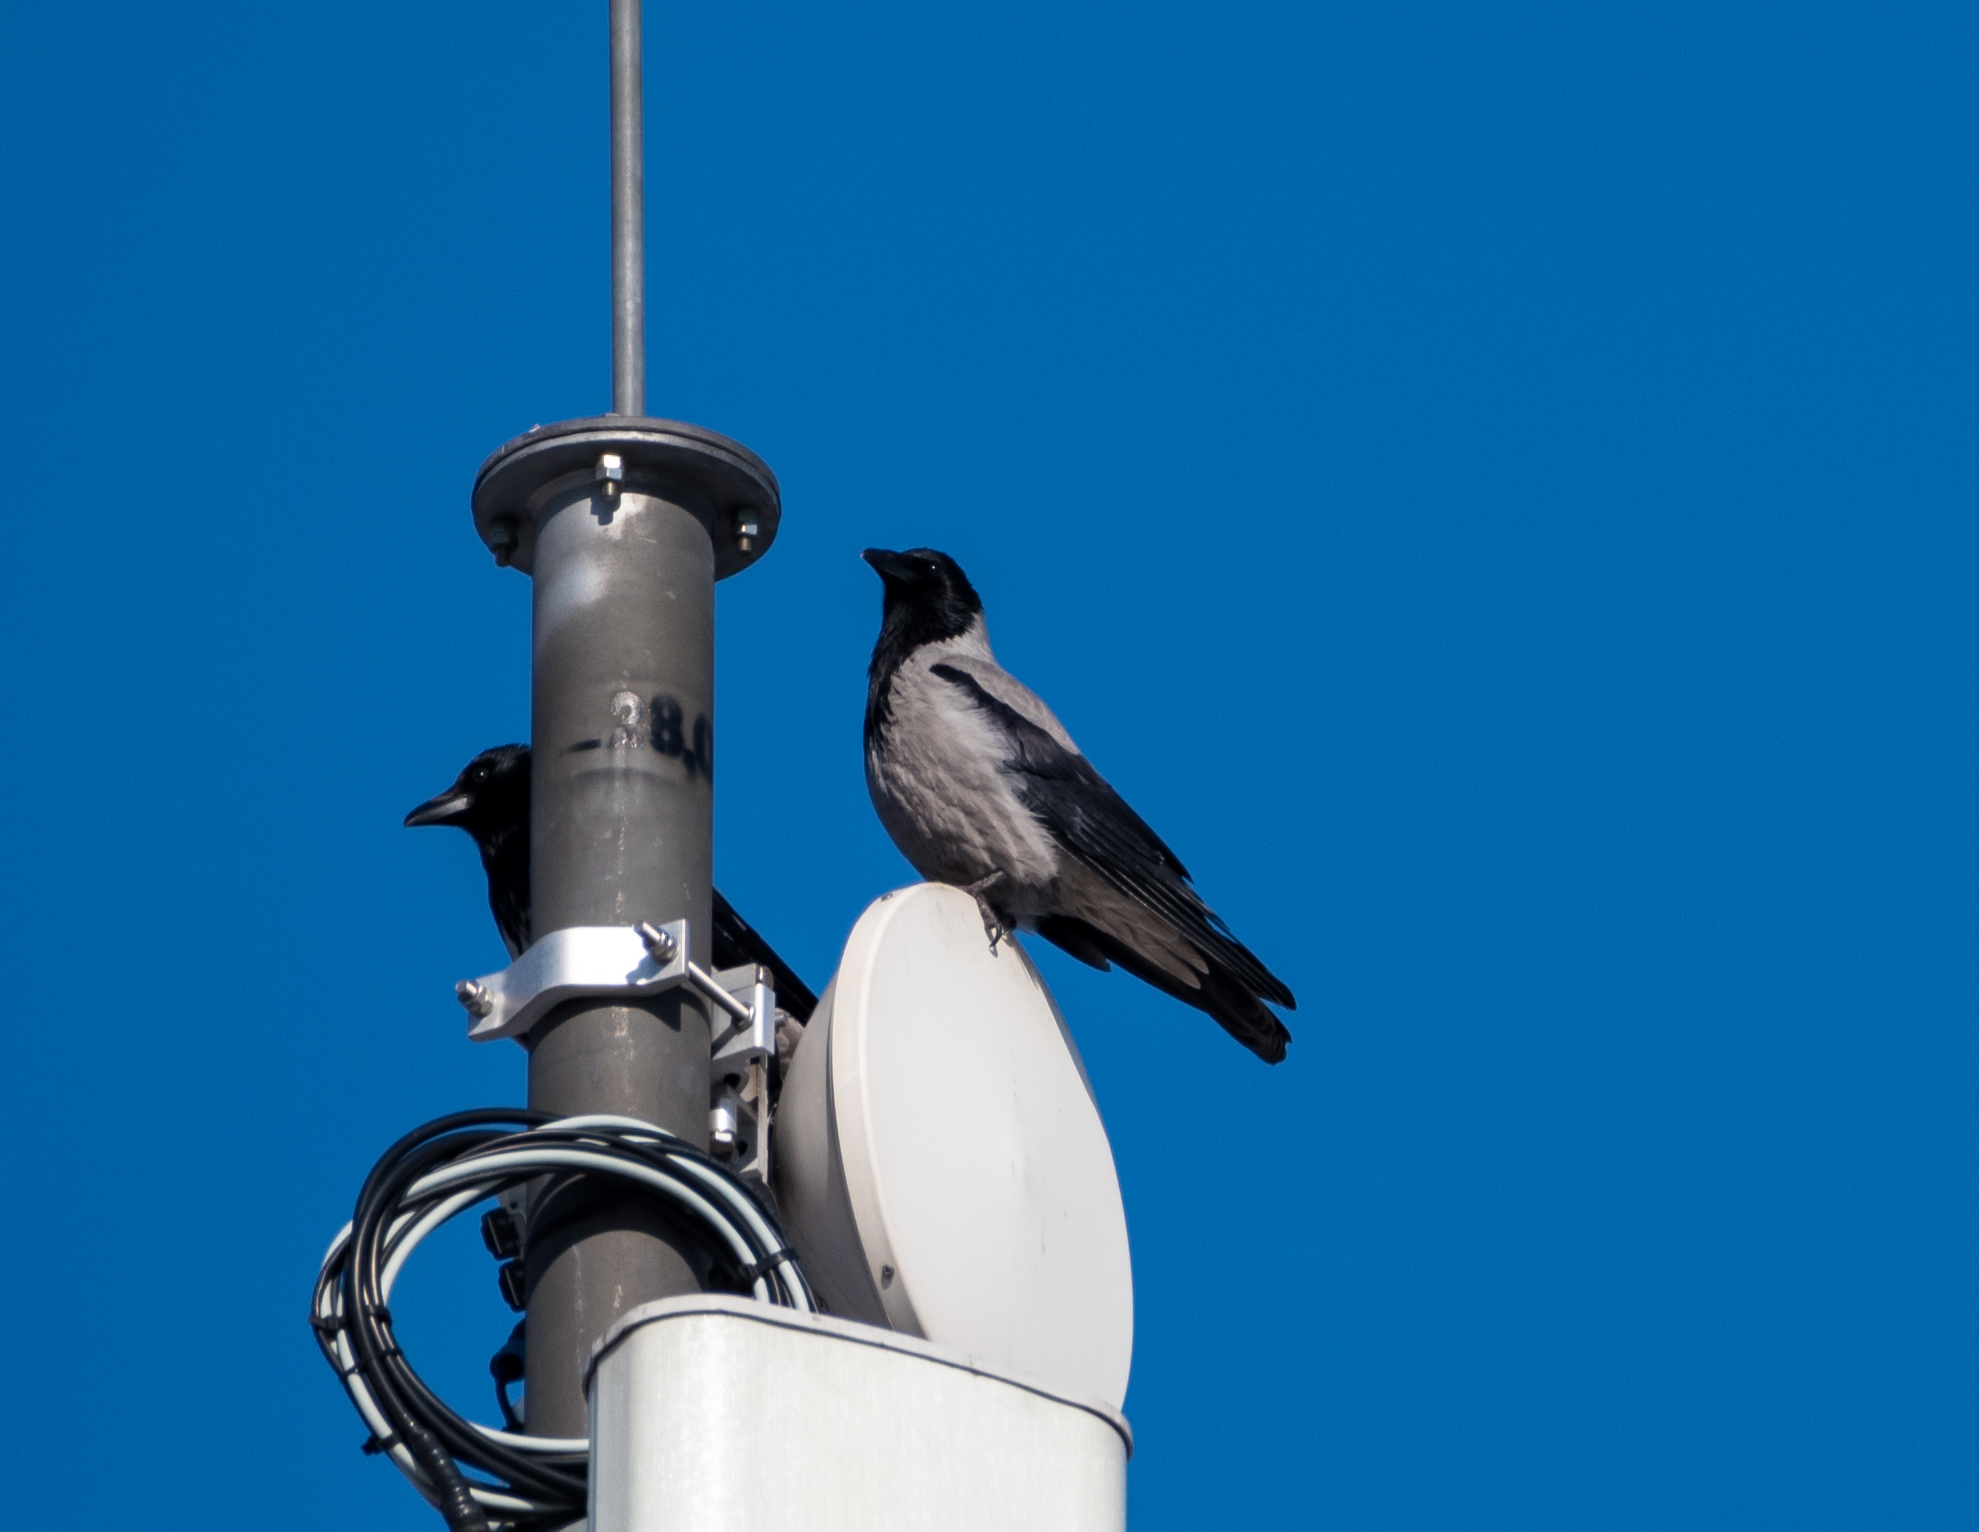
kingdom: Animalia
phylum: Chordata
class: Aves
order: Passeriformes
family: Corvidae
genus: Corvus
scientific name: Corvus cornix
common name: Hooded crow
